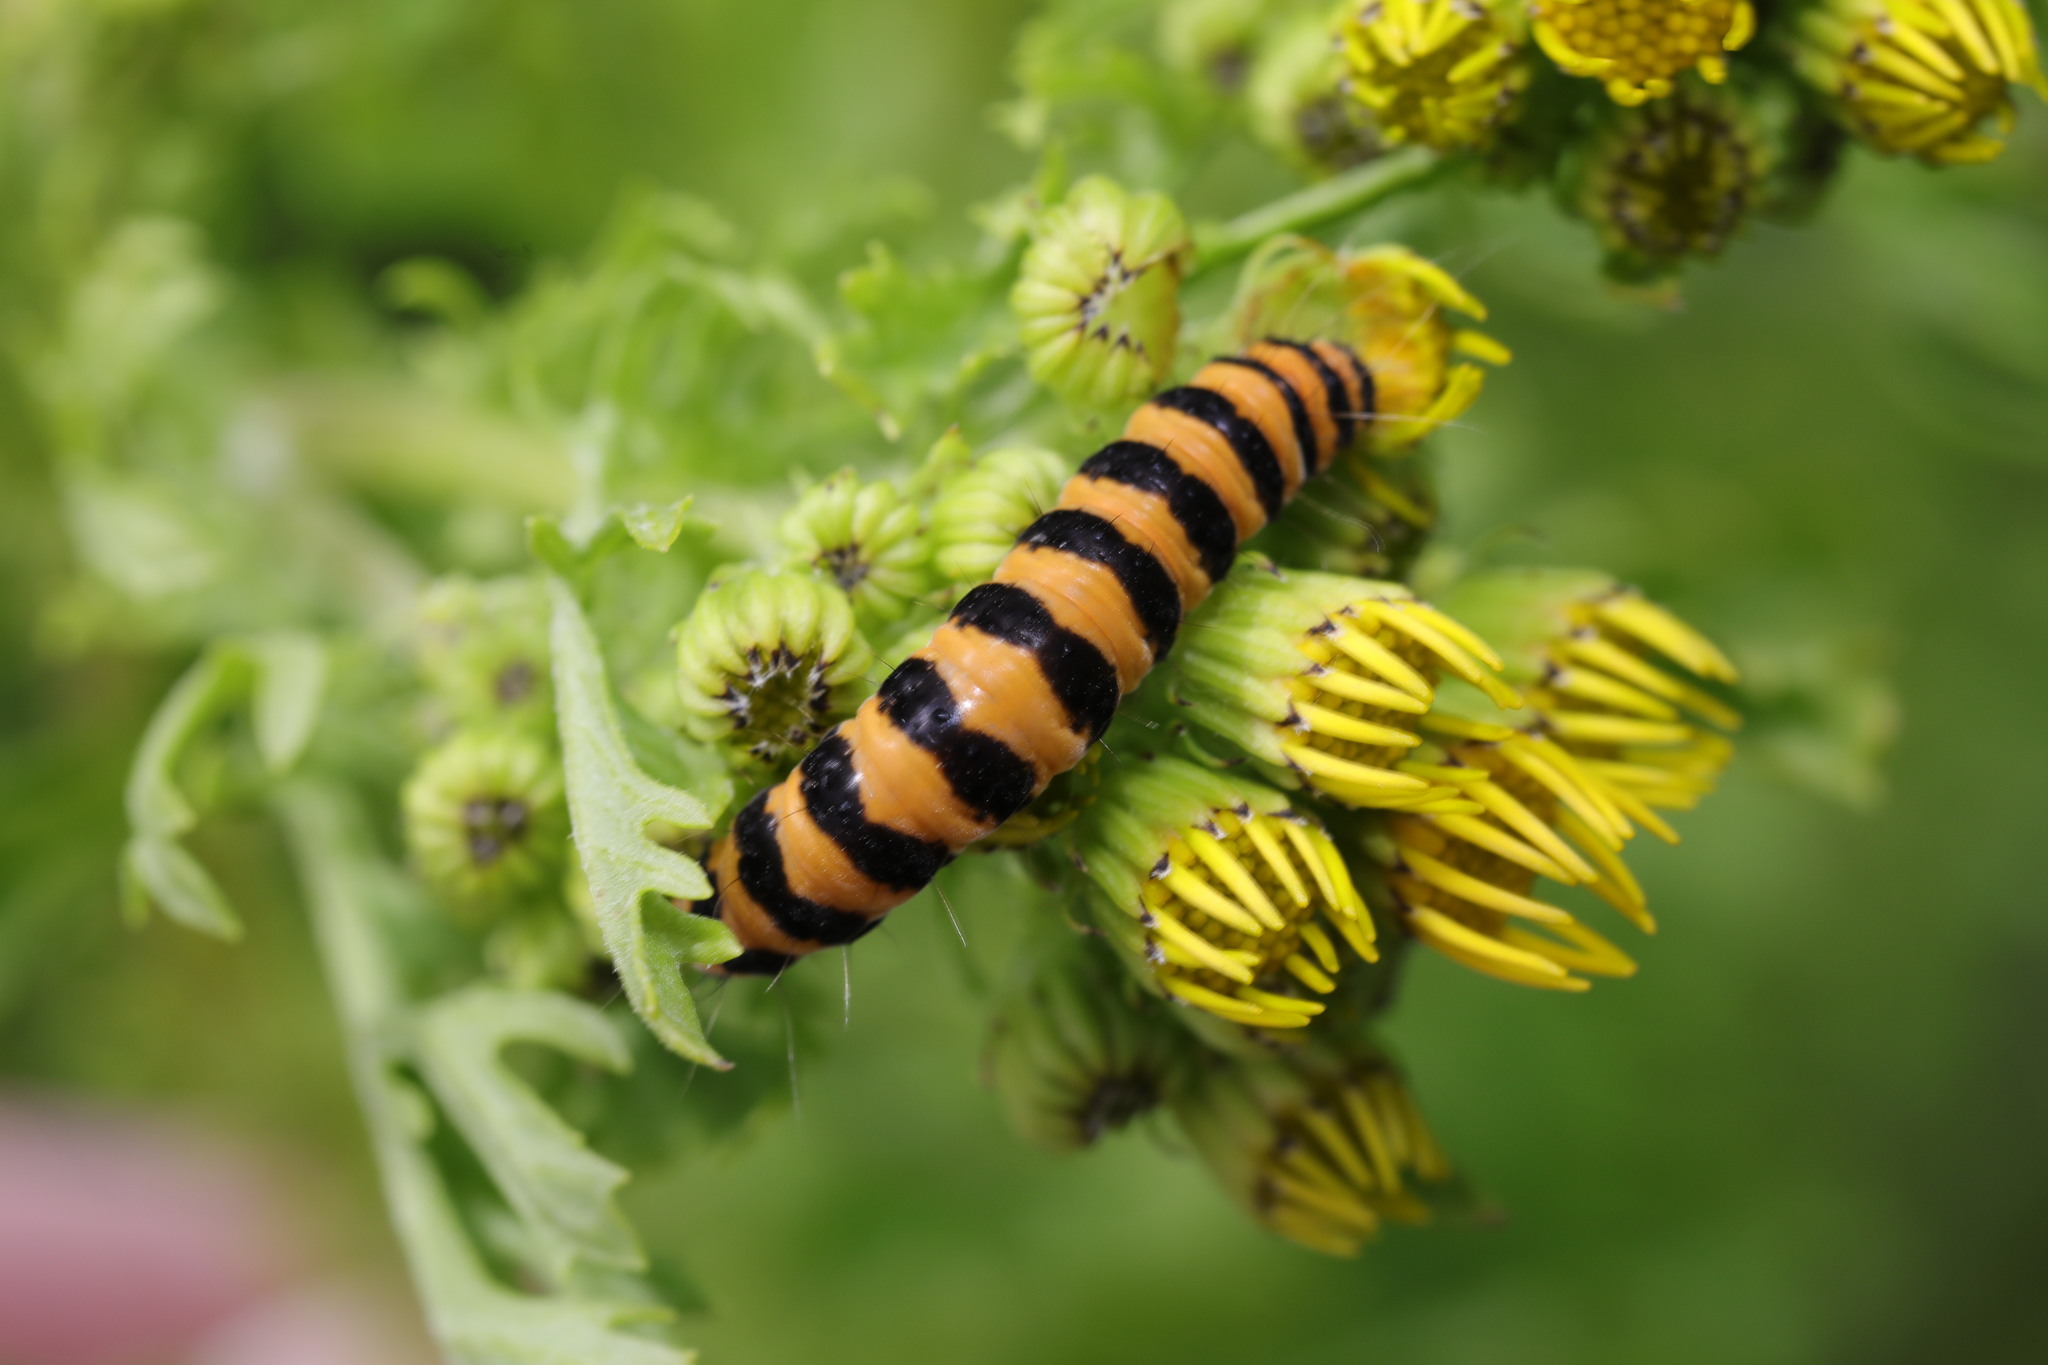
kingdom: Animalia
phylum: Arthropoda
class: Insecta
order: Lepidoptera
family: Erebidae
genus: Tyria
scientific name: Tyria jacobaeae
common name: Cinnabar
